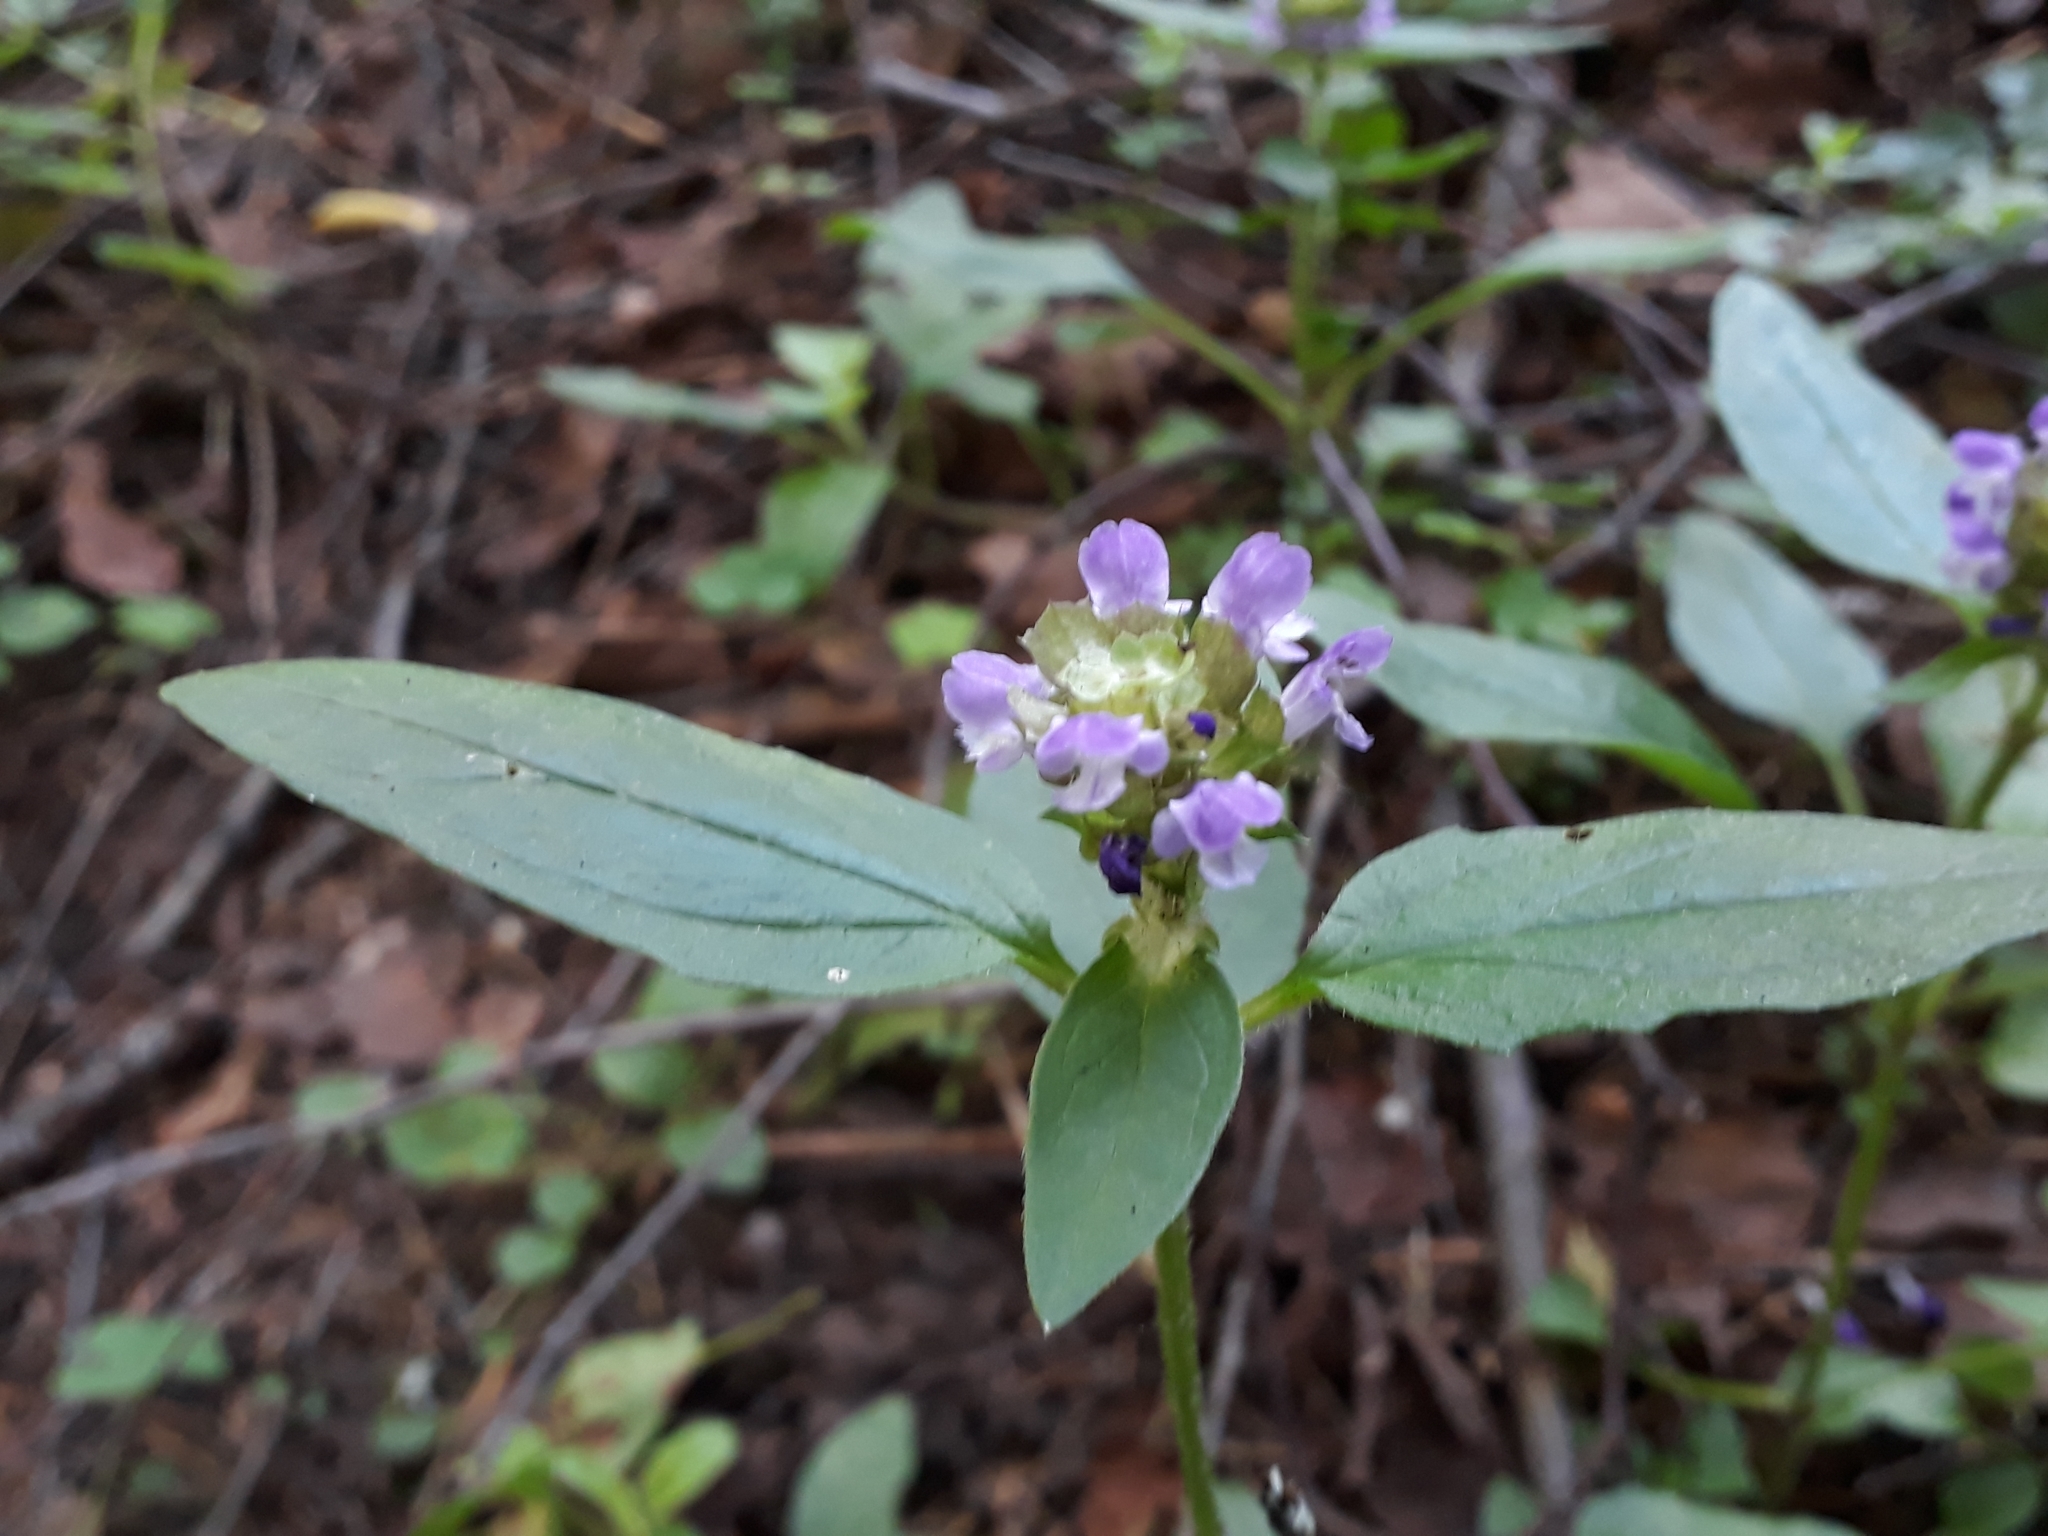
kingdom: Plantae
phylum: Tracheophyta
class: Magnoliopsida
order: Lamiales
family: Lamiaceae
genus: Prunella
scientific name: Prunella vulgaris
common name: Heal-all
